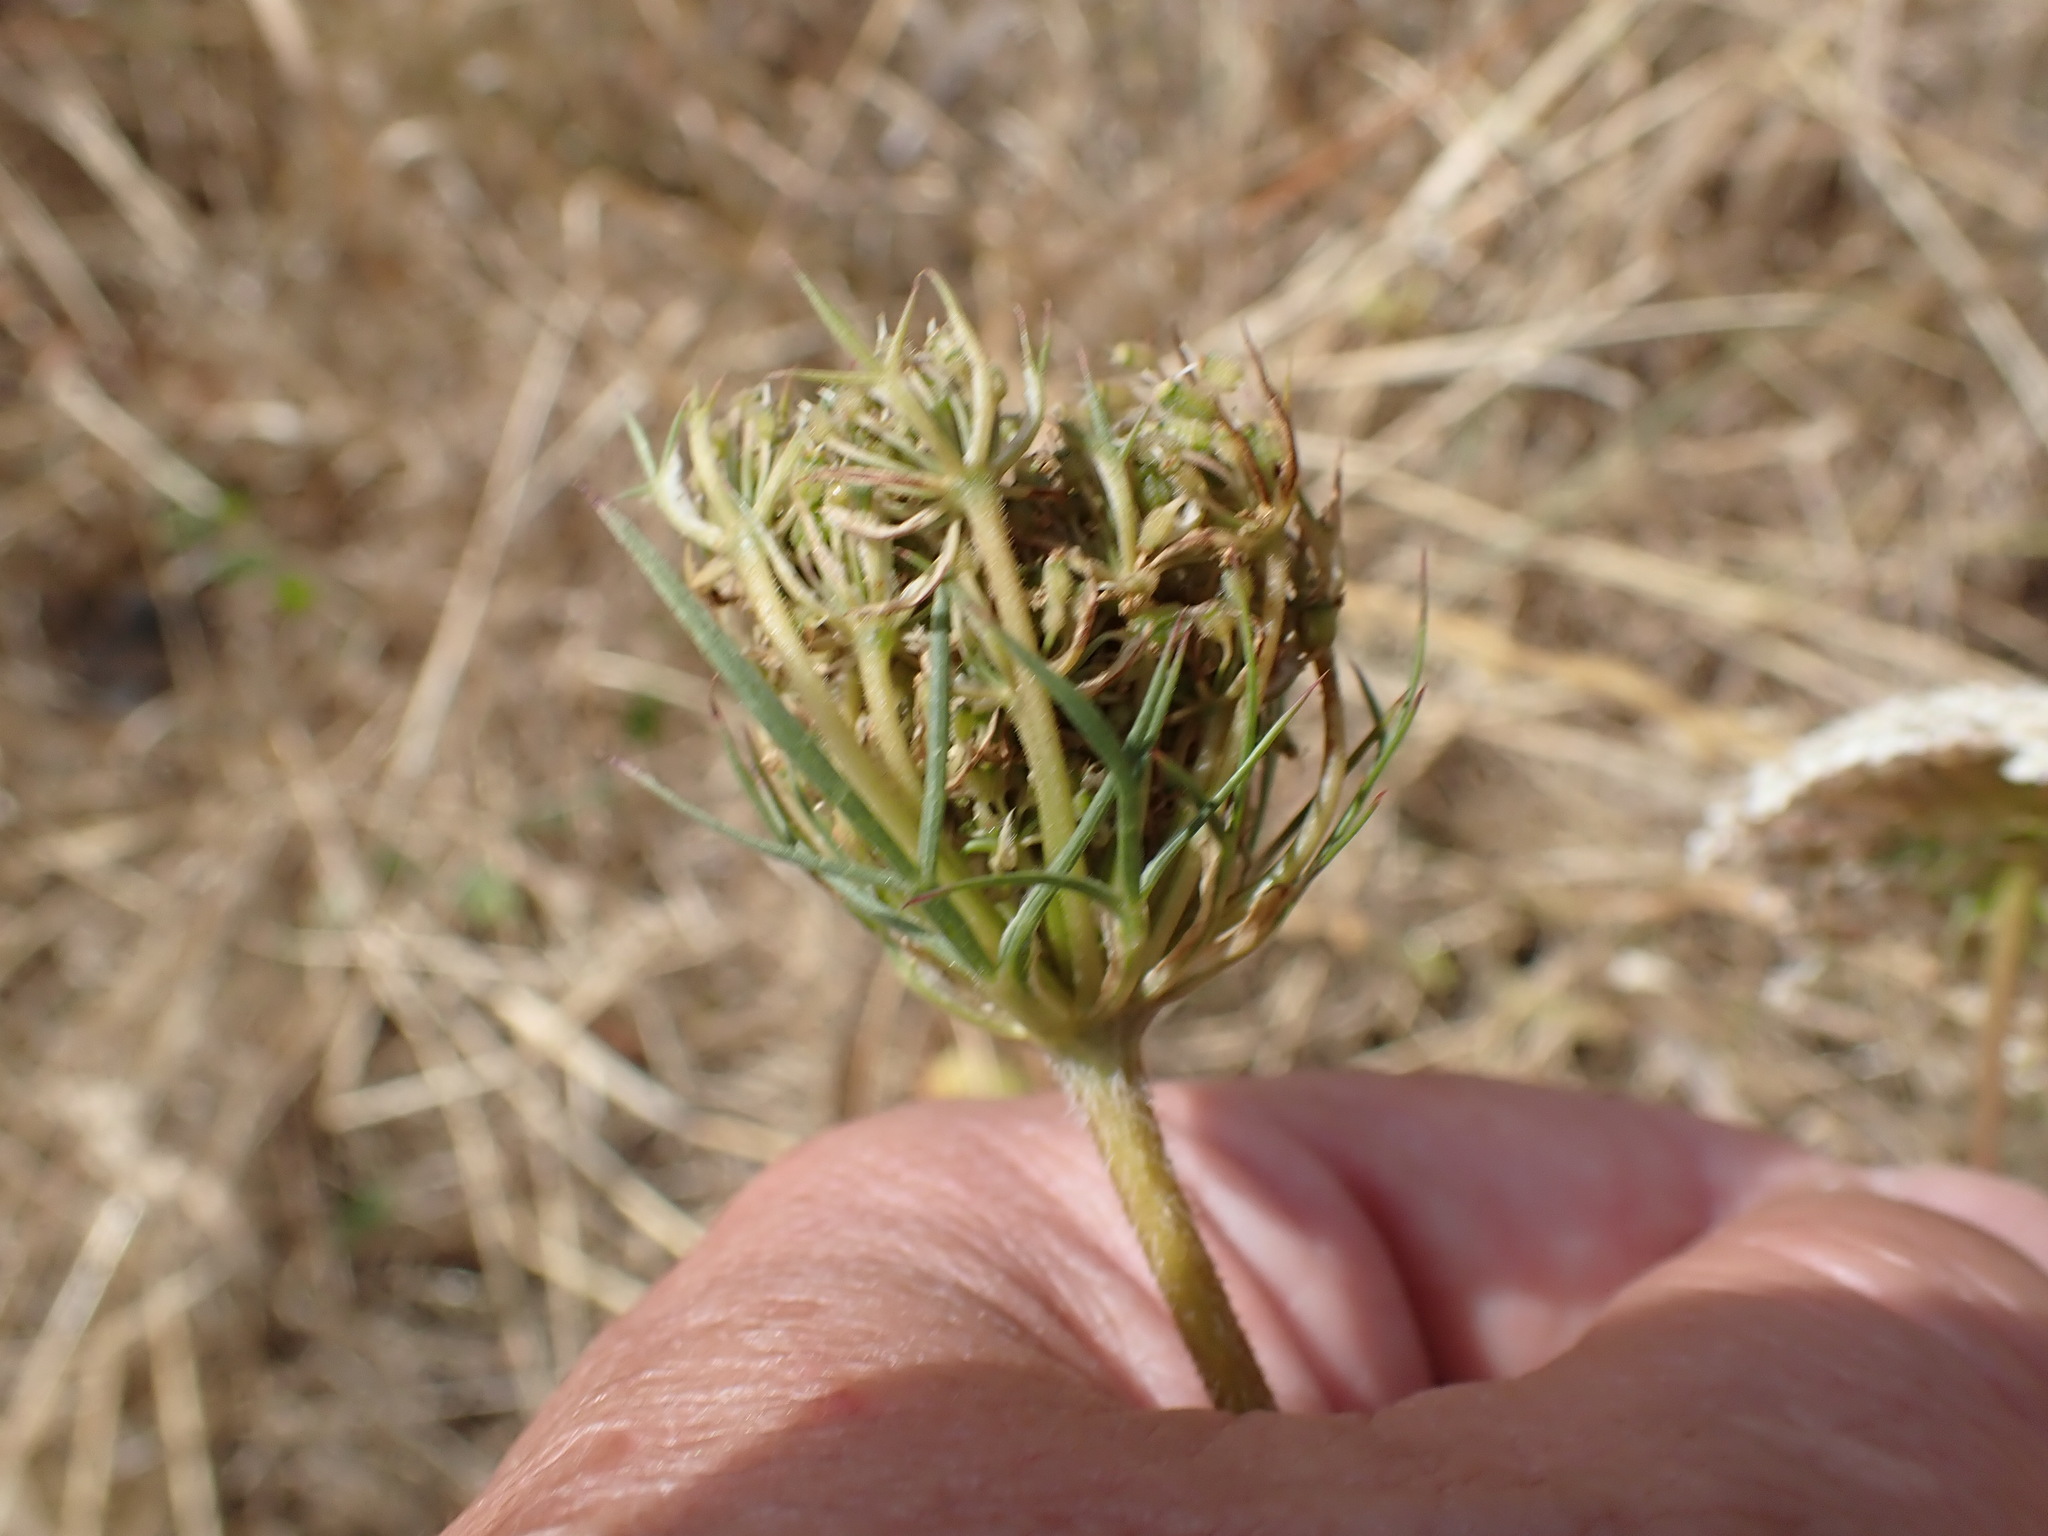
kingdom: Plantae
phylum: Tracheophyta
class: Magnoliopsida
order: Apiales
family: Apiaceae
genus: Daucus
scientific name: Daucus carota
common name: Wild carrot
